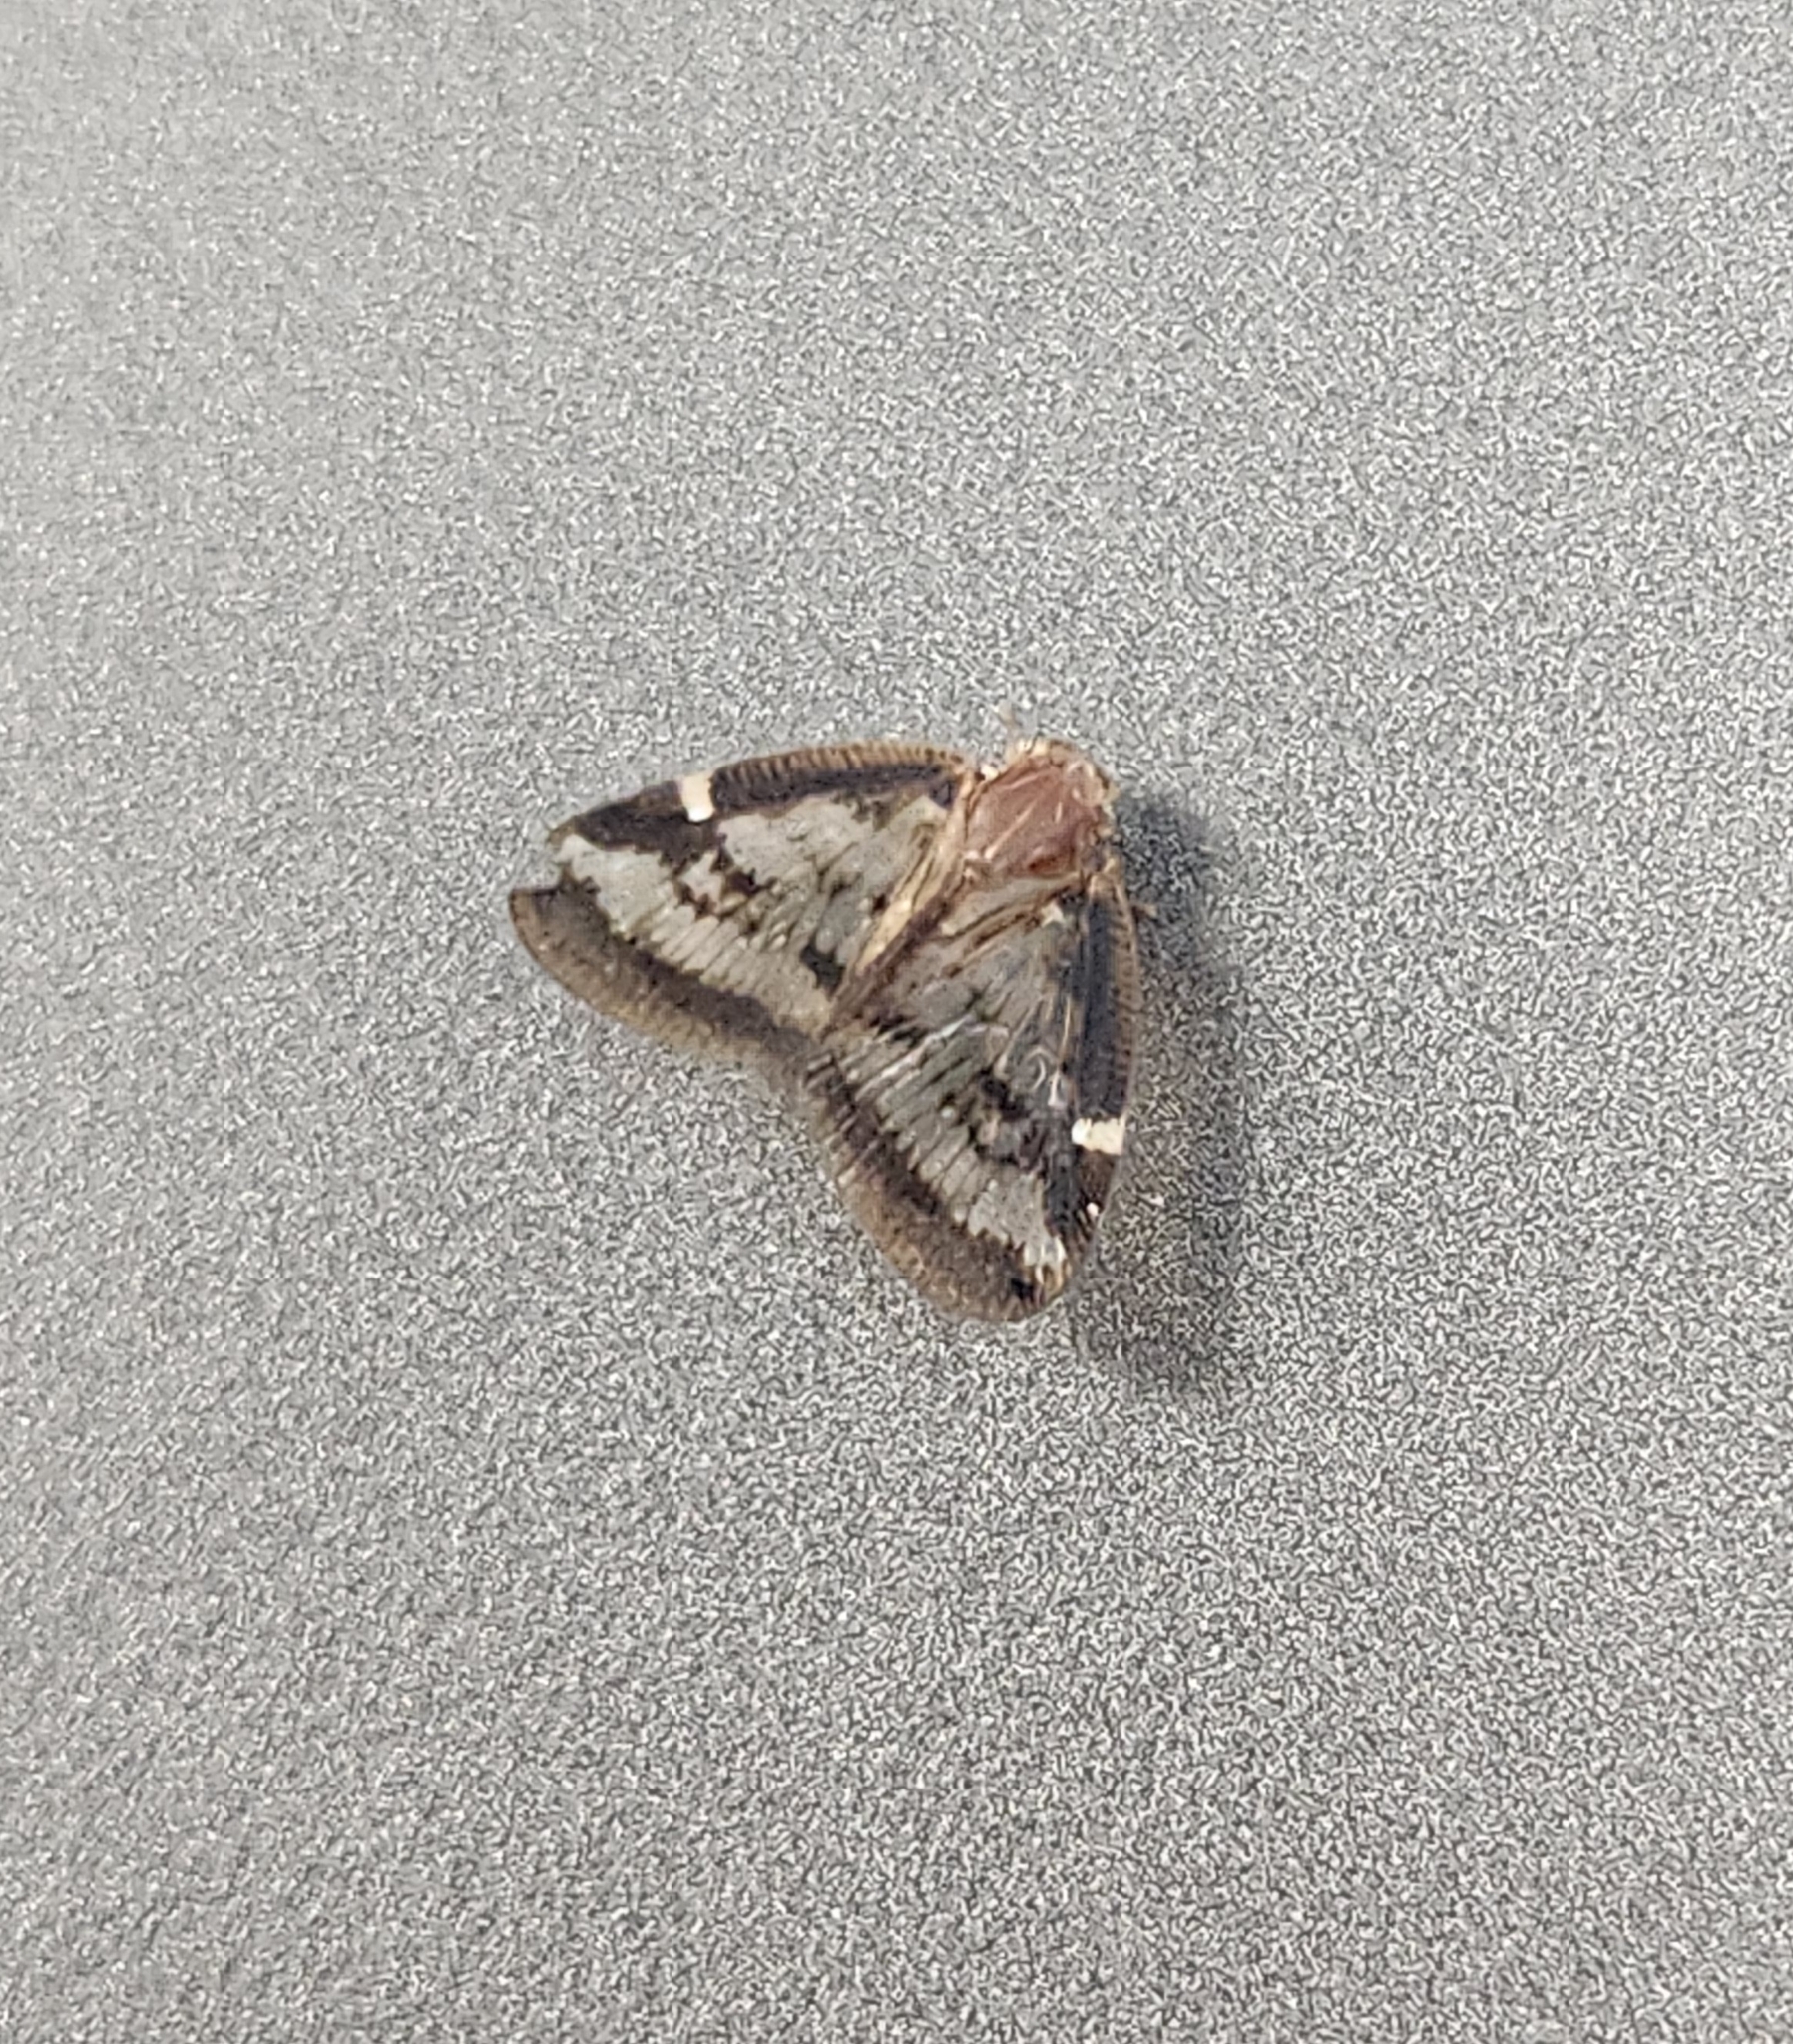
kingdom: Animalia
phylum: Arthropoda
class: Insecta
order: Hemiptera
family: Ricaniidae
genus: Scolypopa
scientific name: Scolypopa australis
